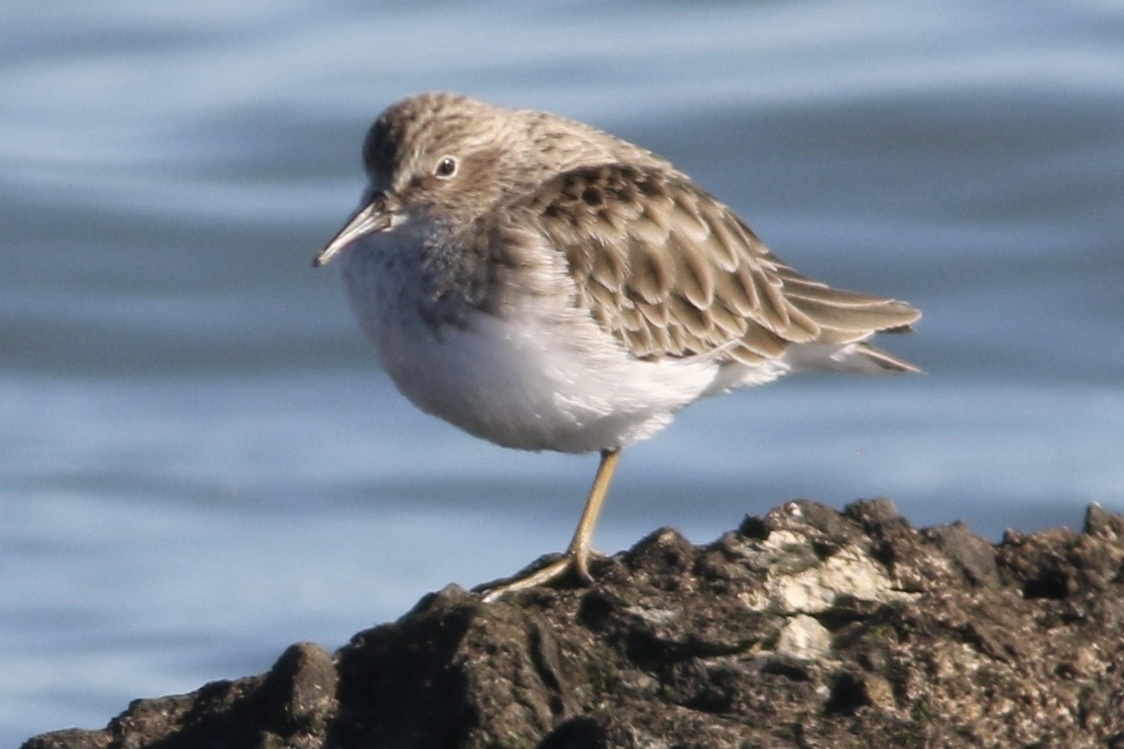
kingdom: Animalia
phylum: Chordata
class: Aves
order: Charadriiformes
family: Scolopacidae
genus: Calidris
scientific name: Calidris minutilla
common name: Least sandpiper
